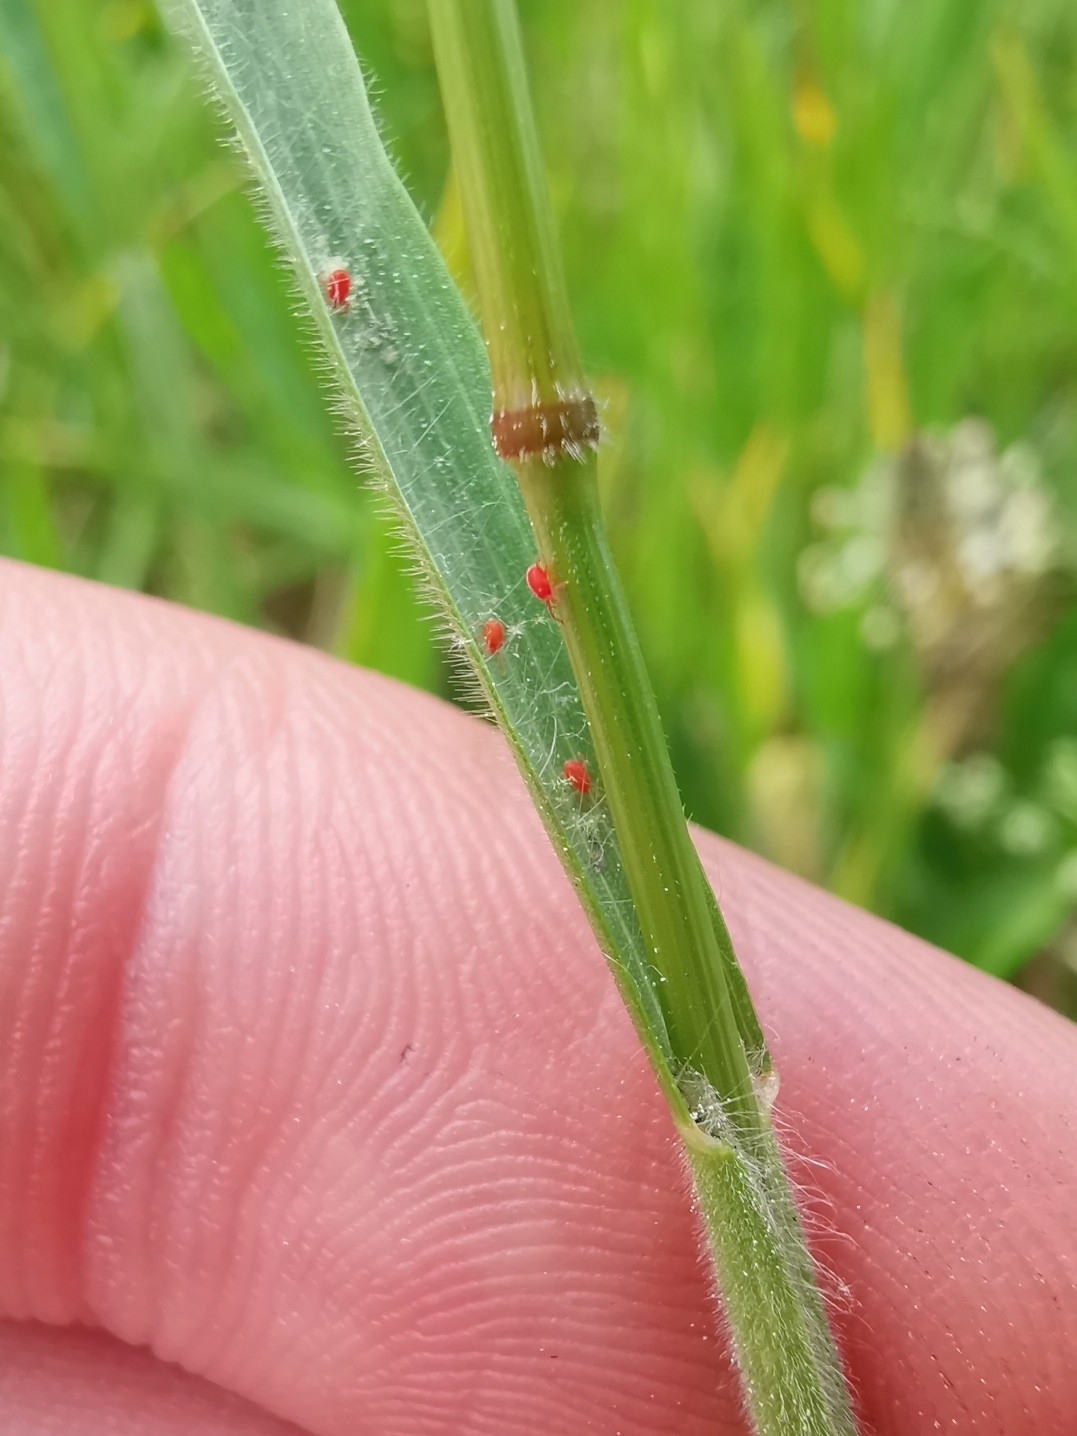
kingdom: Plantae
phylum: Tracheophyta
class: Liliopsida
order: Poales
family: Poaceae
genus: Bromus
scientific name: Bromus hordeaceus
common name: Soft brome
